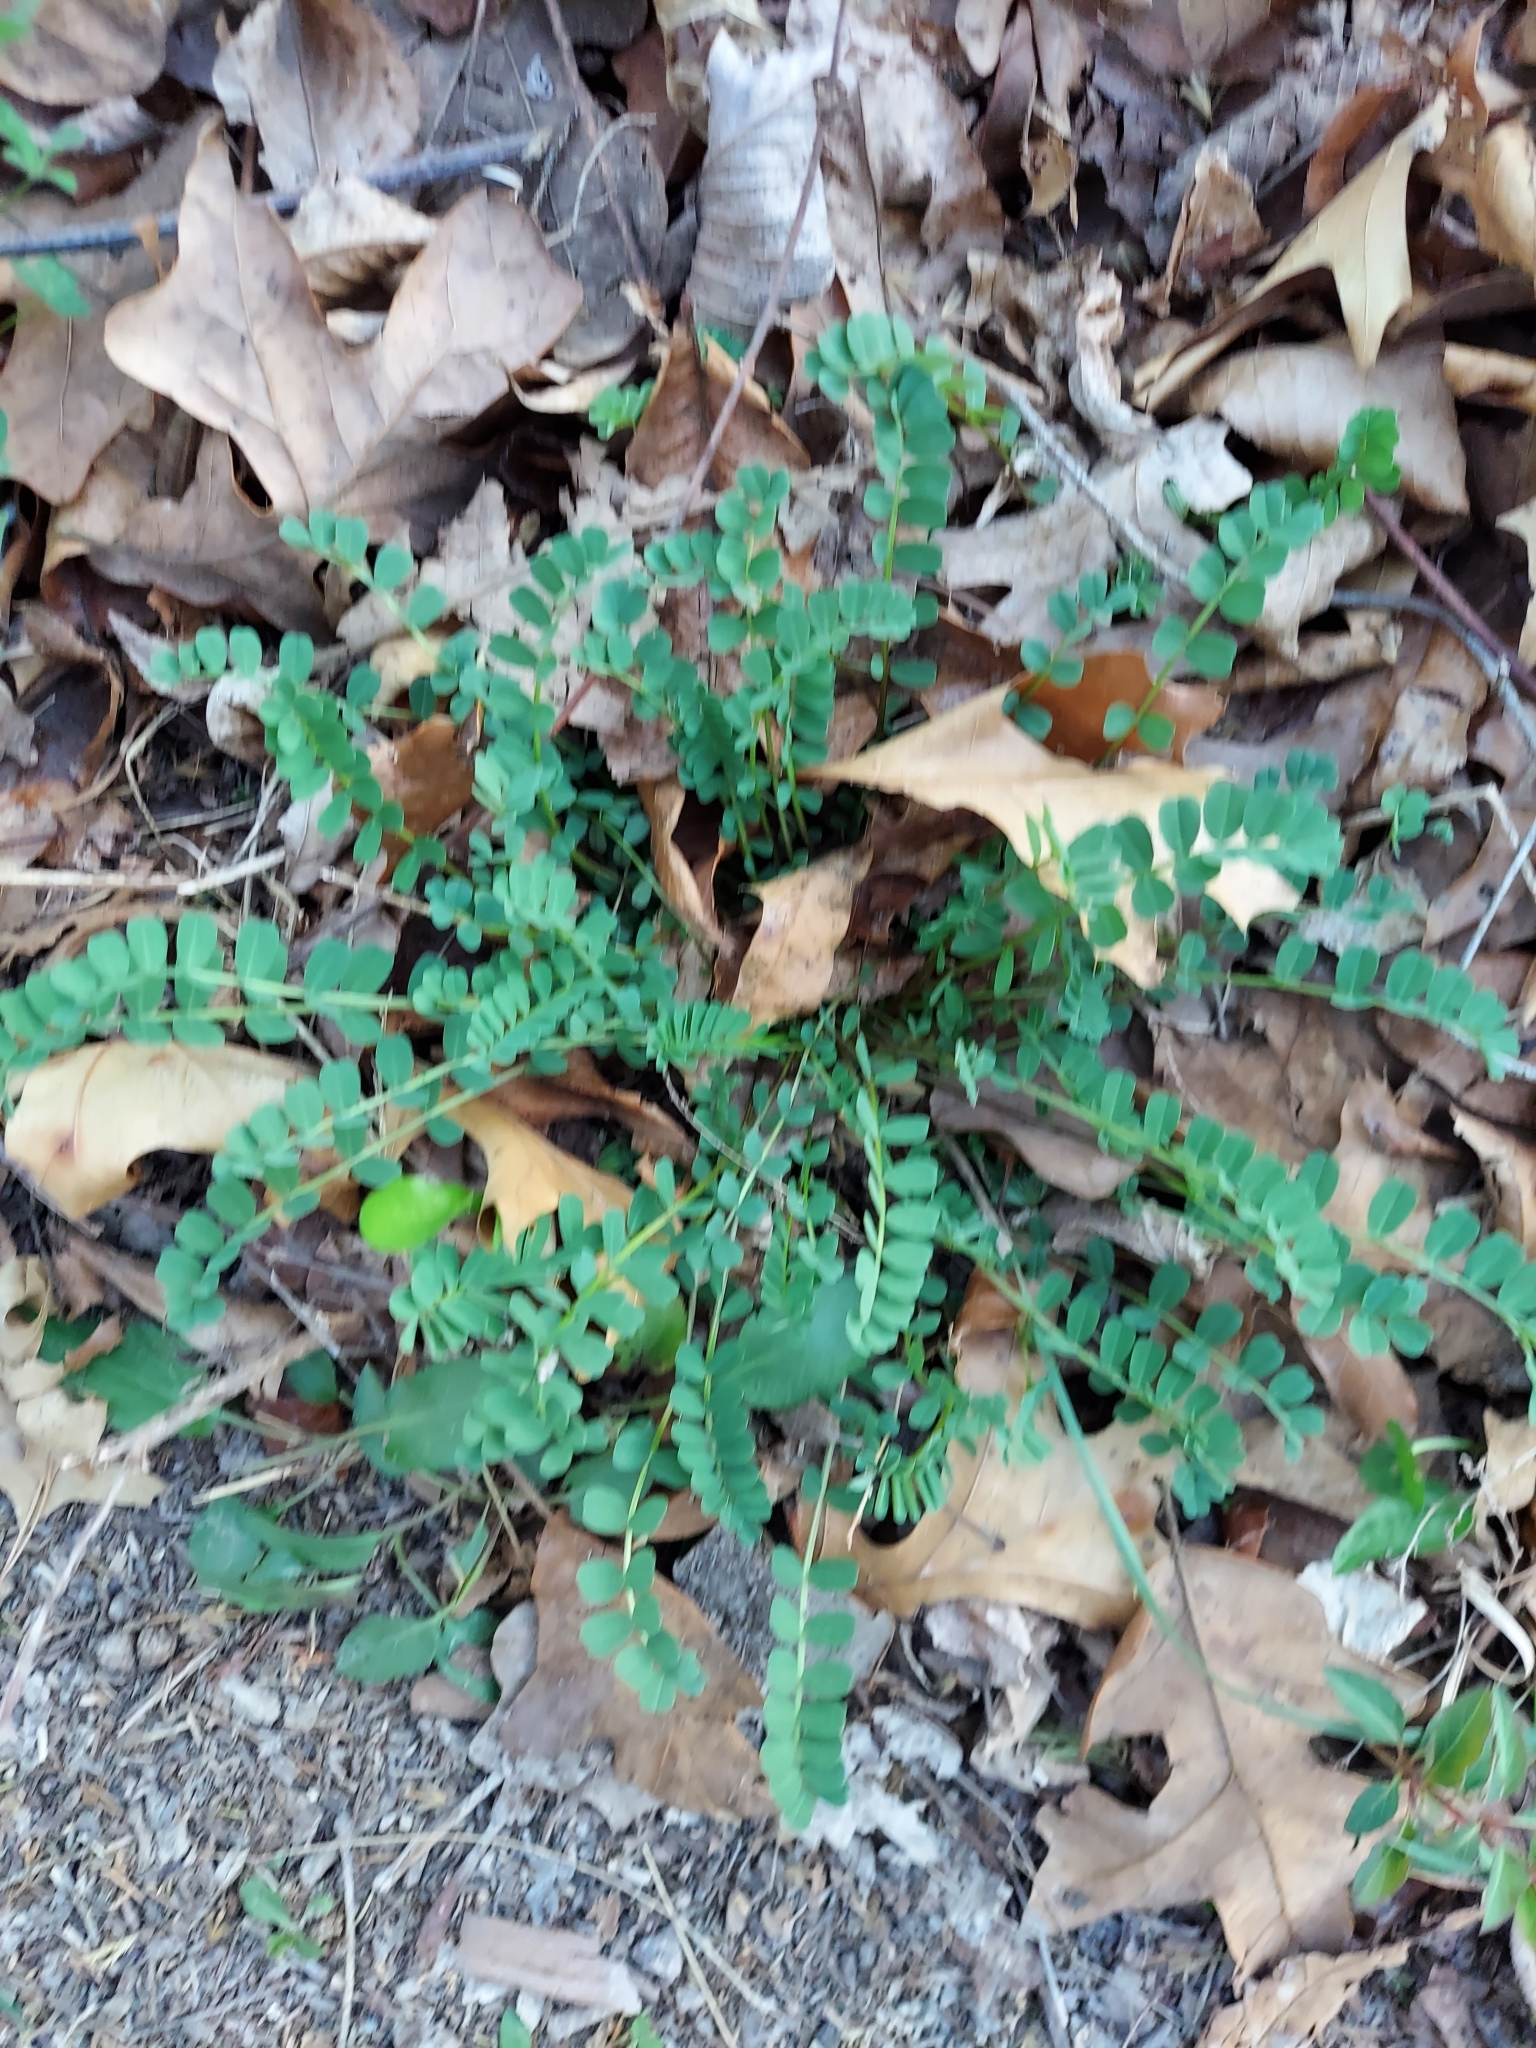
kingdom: Plantae
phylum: Tracheophyta
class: Magnoliopsida
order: Fabales
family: Fabaceae
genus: Coronilla
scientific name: Coronilla varia
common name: Crownvetch
